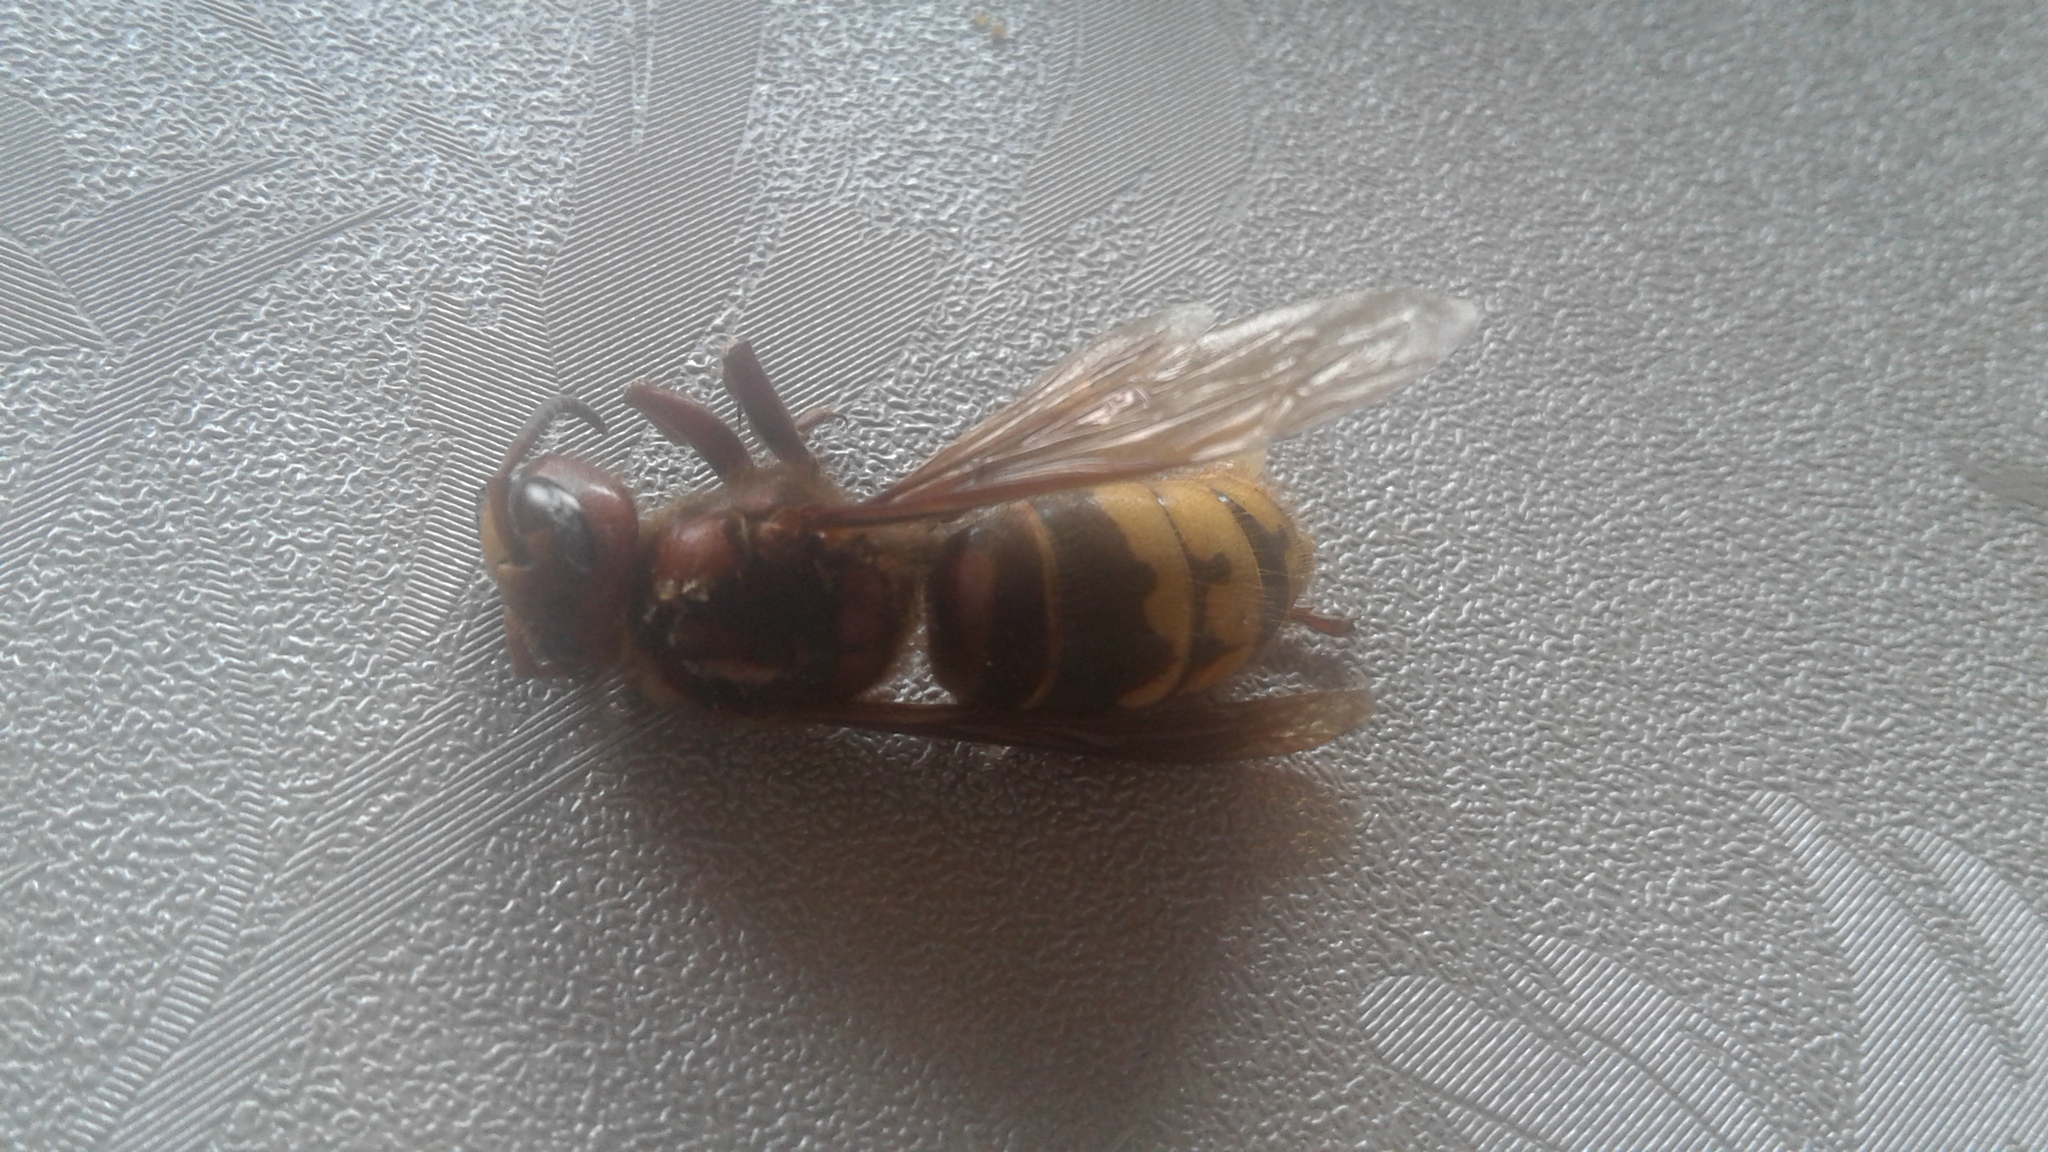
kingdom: Animalia
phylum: Arthropoda
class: Insecta
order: Hymenoptera
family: Vespidae
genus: Vespa
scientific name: Vespa crabro
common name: Hornet
